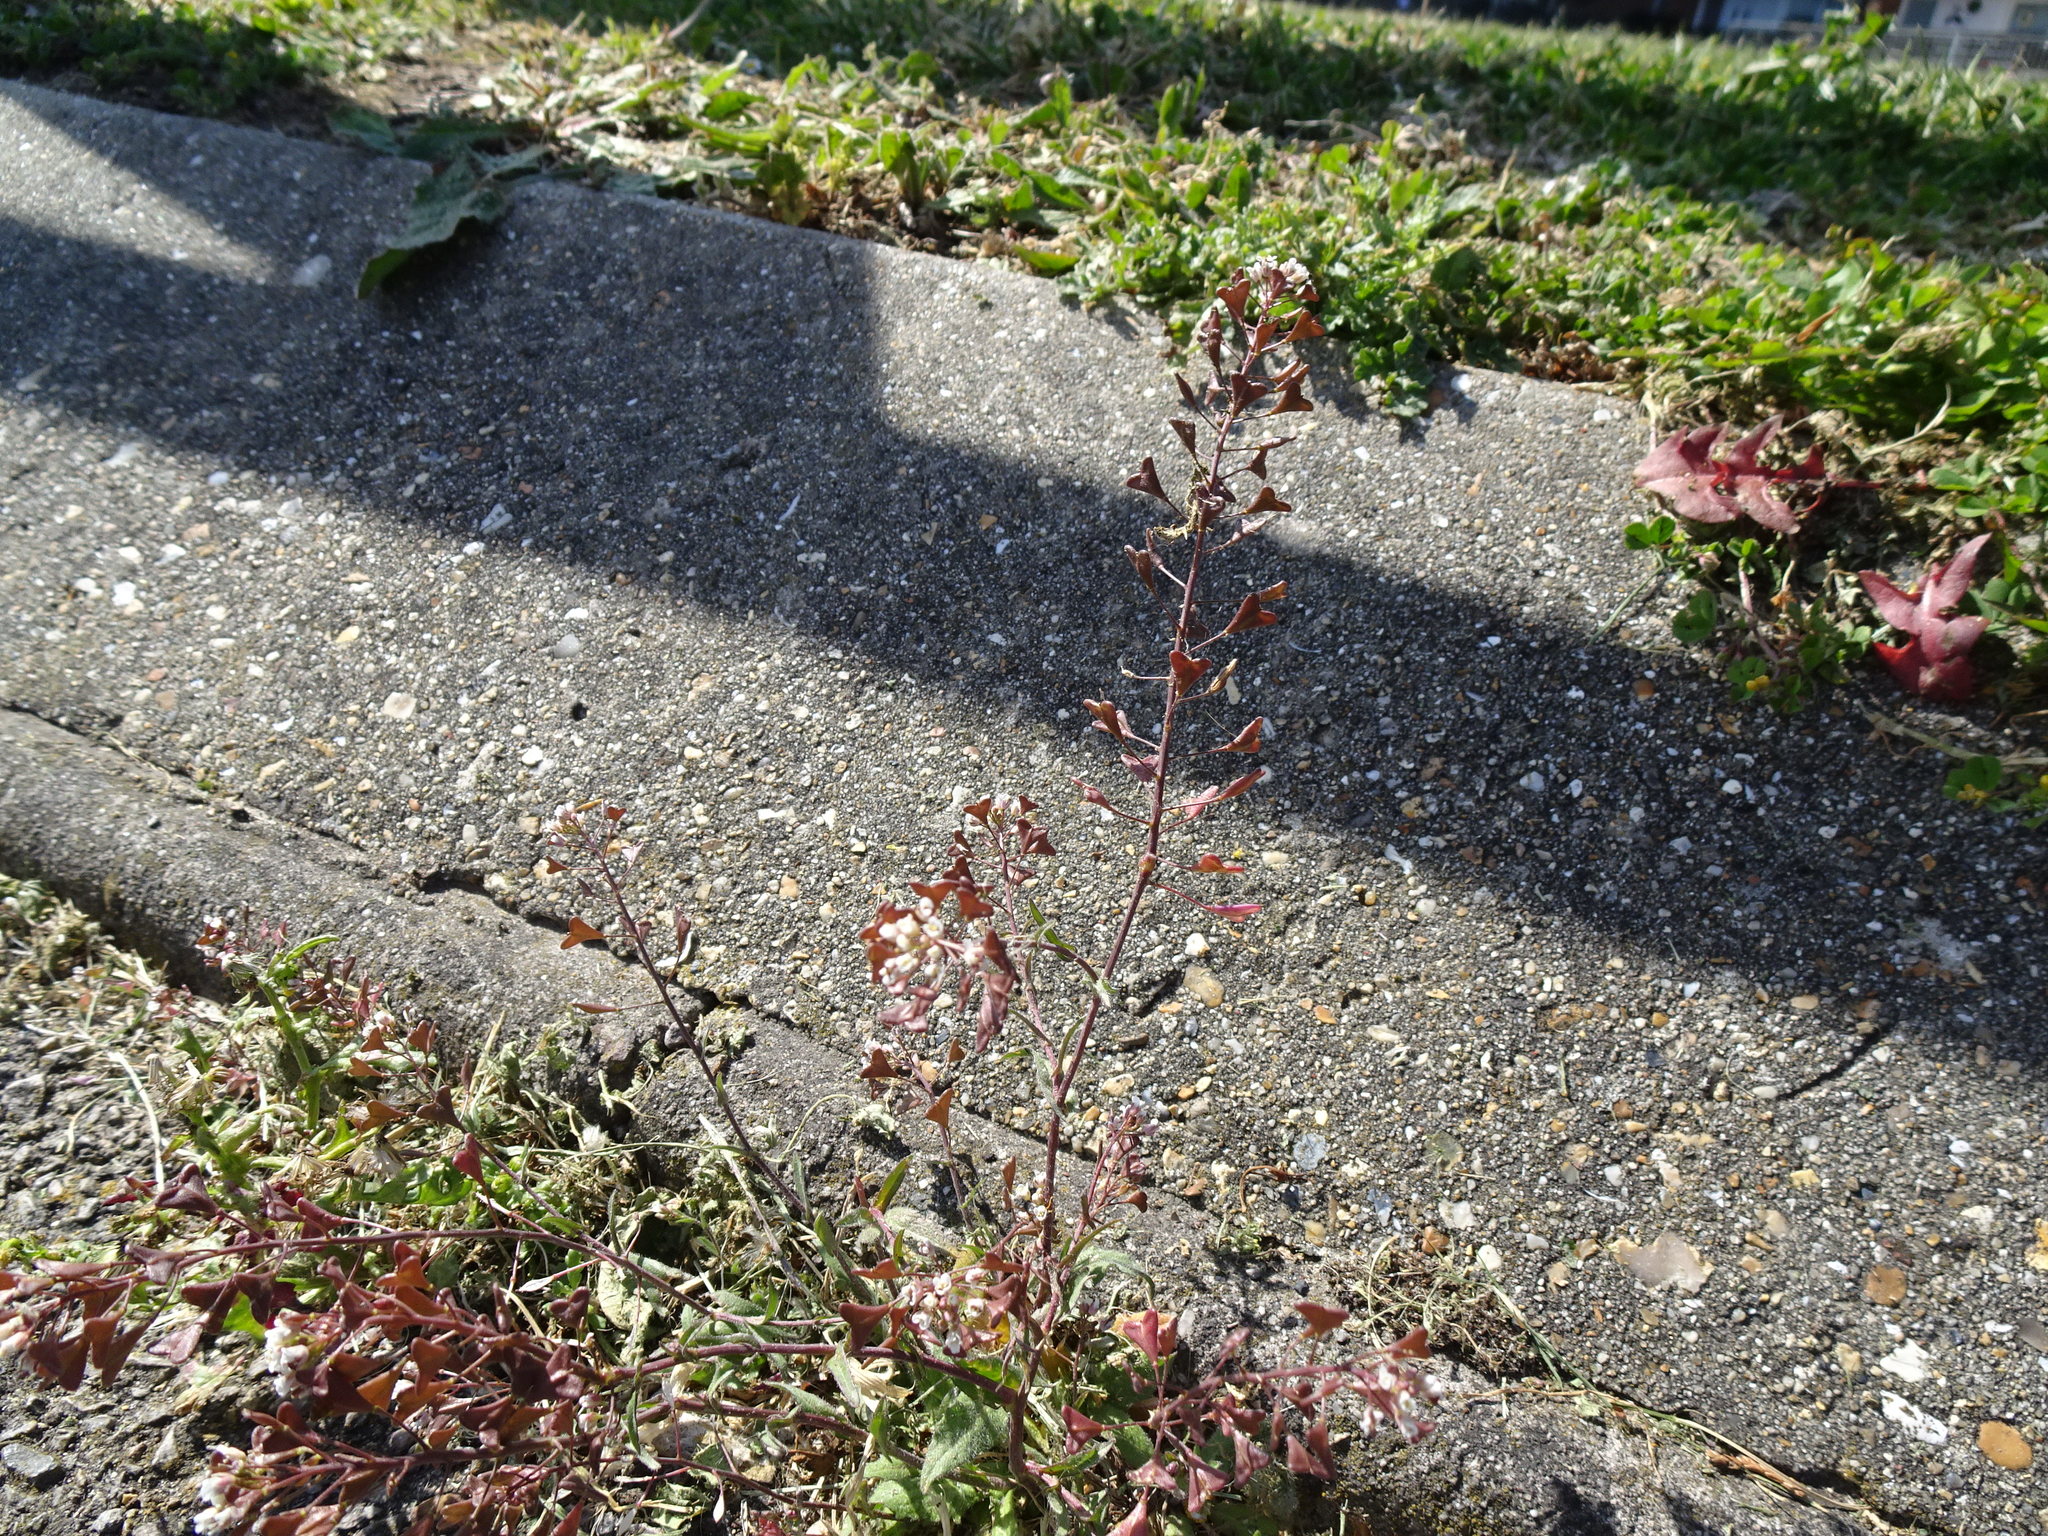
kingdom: Plantae
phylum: Tracheophyta
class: Magnoliopsida
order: Brassicales
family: Brassicaceae
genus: Capsella
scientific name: Capsella bursa-pastoris
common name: Shepherd's purse
